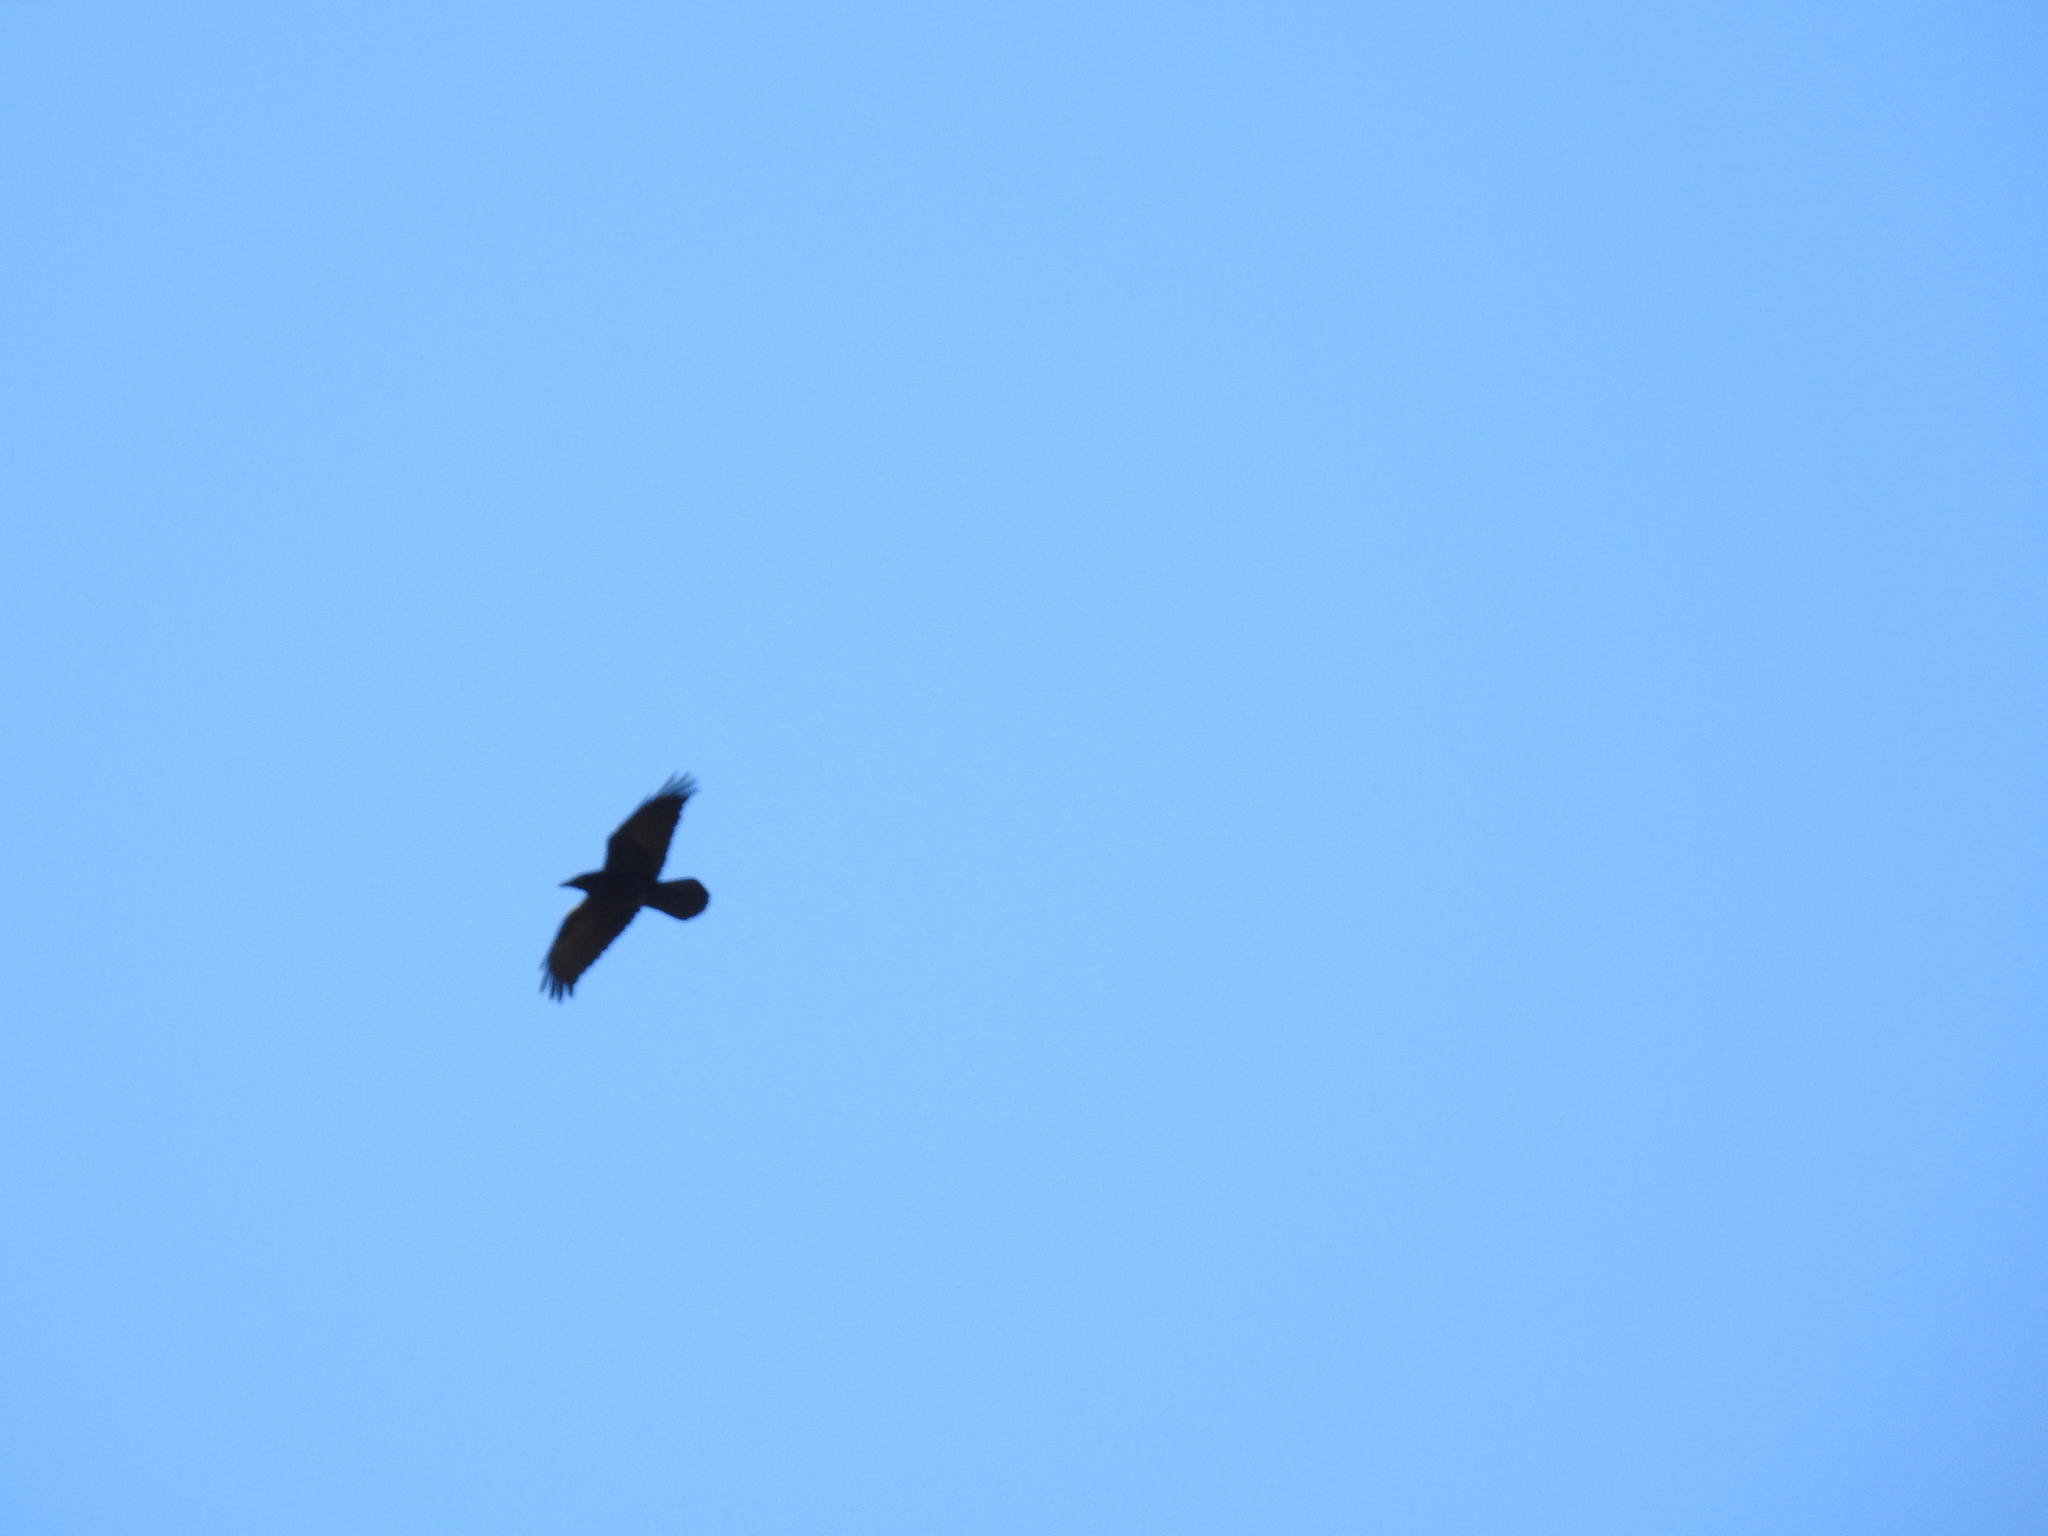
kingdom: Animalia
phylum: Chordata
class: Aves
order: Passeriformes
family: Corvidae
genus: Corvus
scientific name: Corvus corax
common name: Common raven
